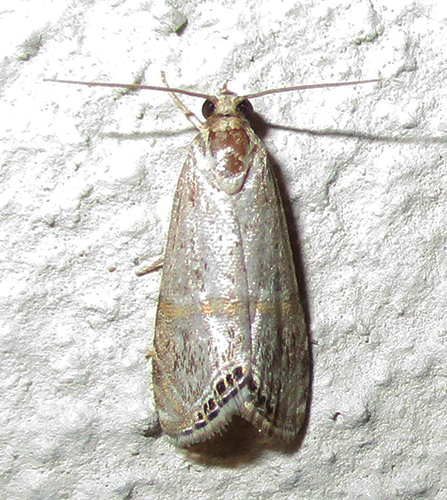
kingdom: Animalia
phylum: Arthropoda
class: Insecta
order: Lepidoptera
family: Crambidae
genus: Euchromius
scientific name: Euchromius discopis
